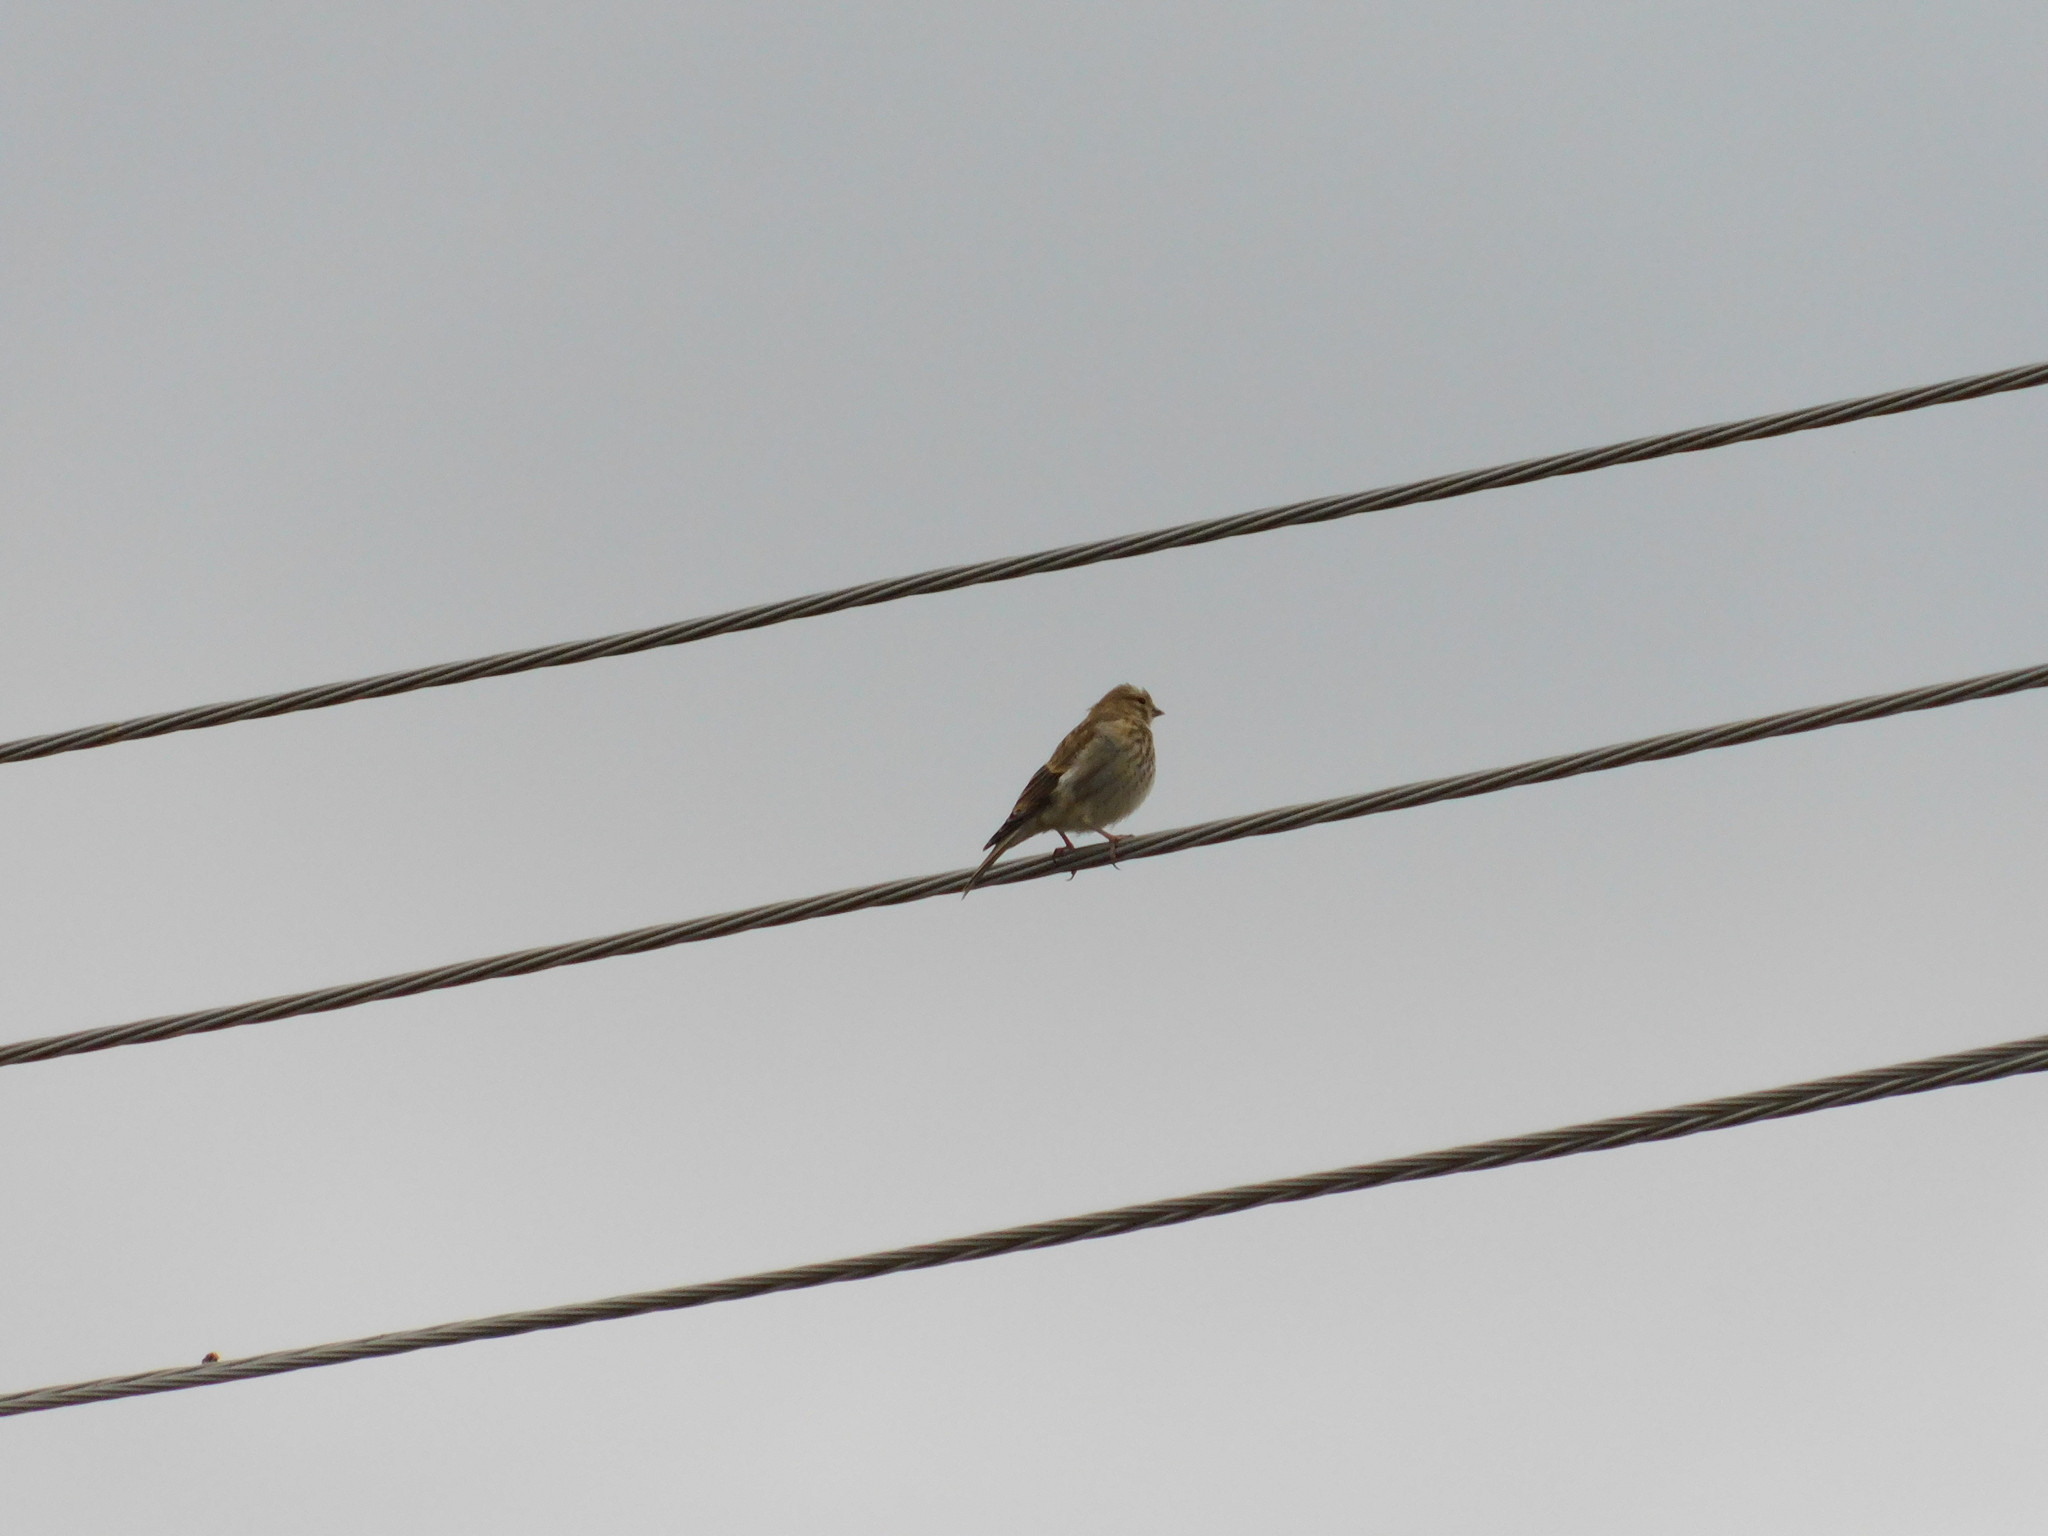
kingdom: Animalia
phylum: Chordata
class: Aves
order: Passeriformes
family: Fringillidae
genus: Linaria
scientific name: Linaria cannabina
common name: Common linnet
